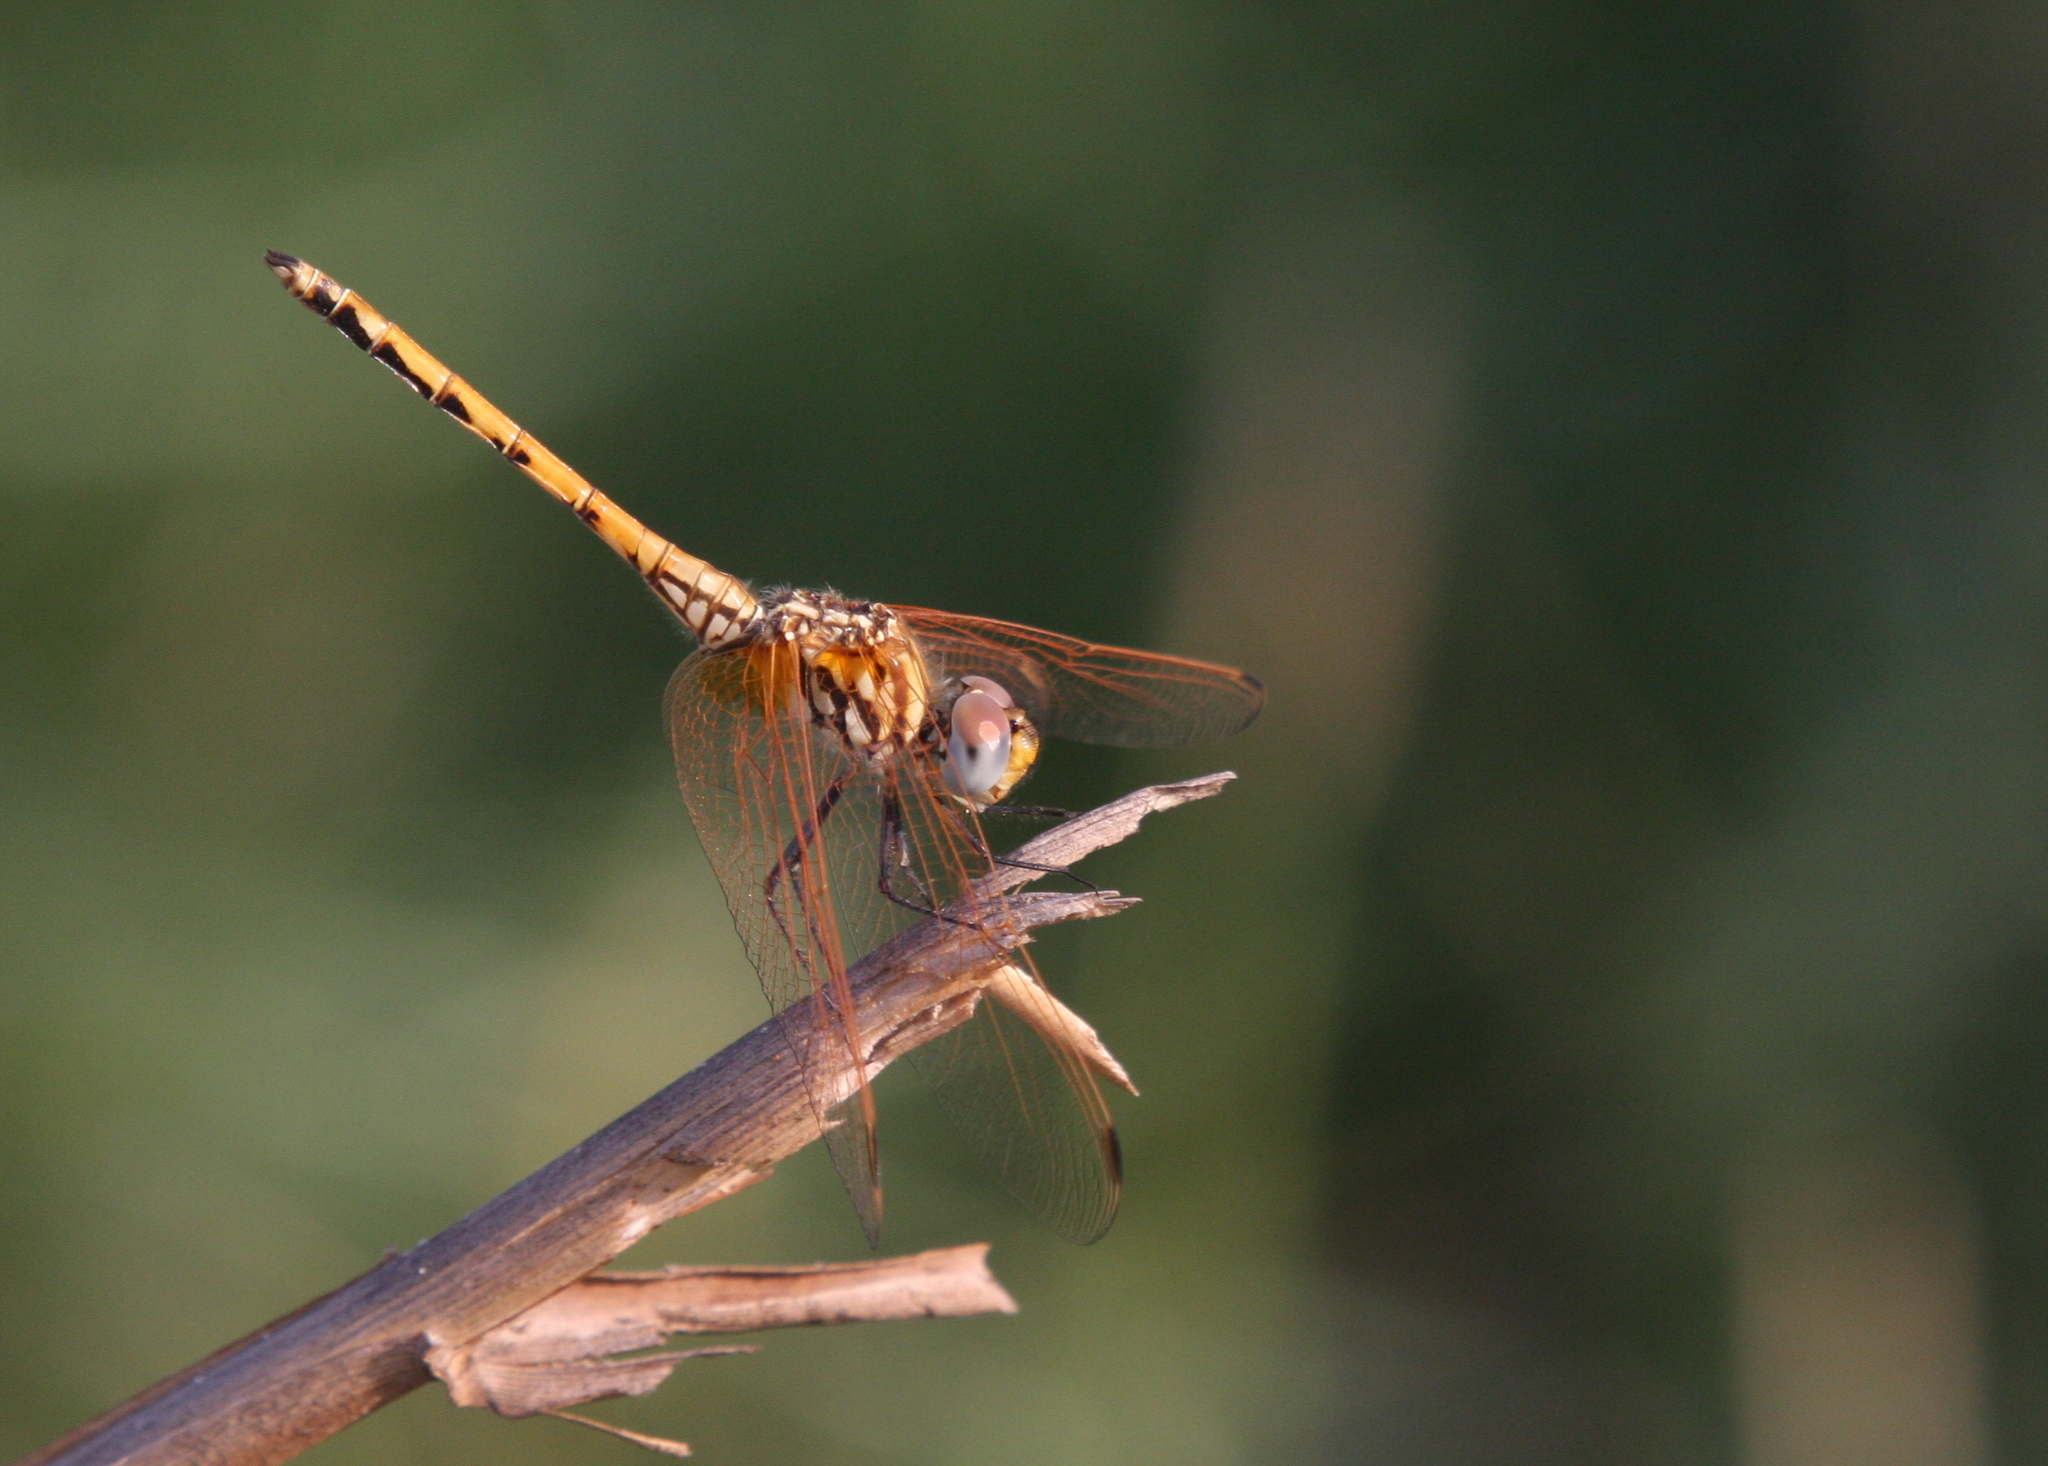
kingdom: Animalia
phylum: Arthropoda
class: Insecta
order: Odonata
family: Libellulidae
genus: Trithemis
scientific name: Trithemis arteriosa
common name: Red-veined dropwing
